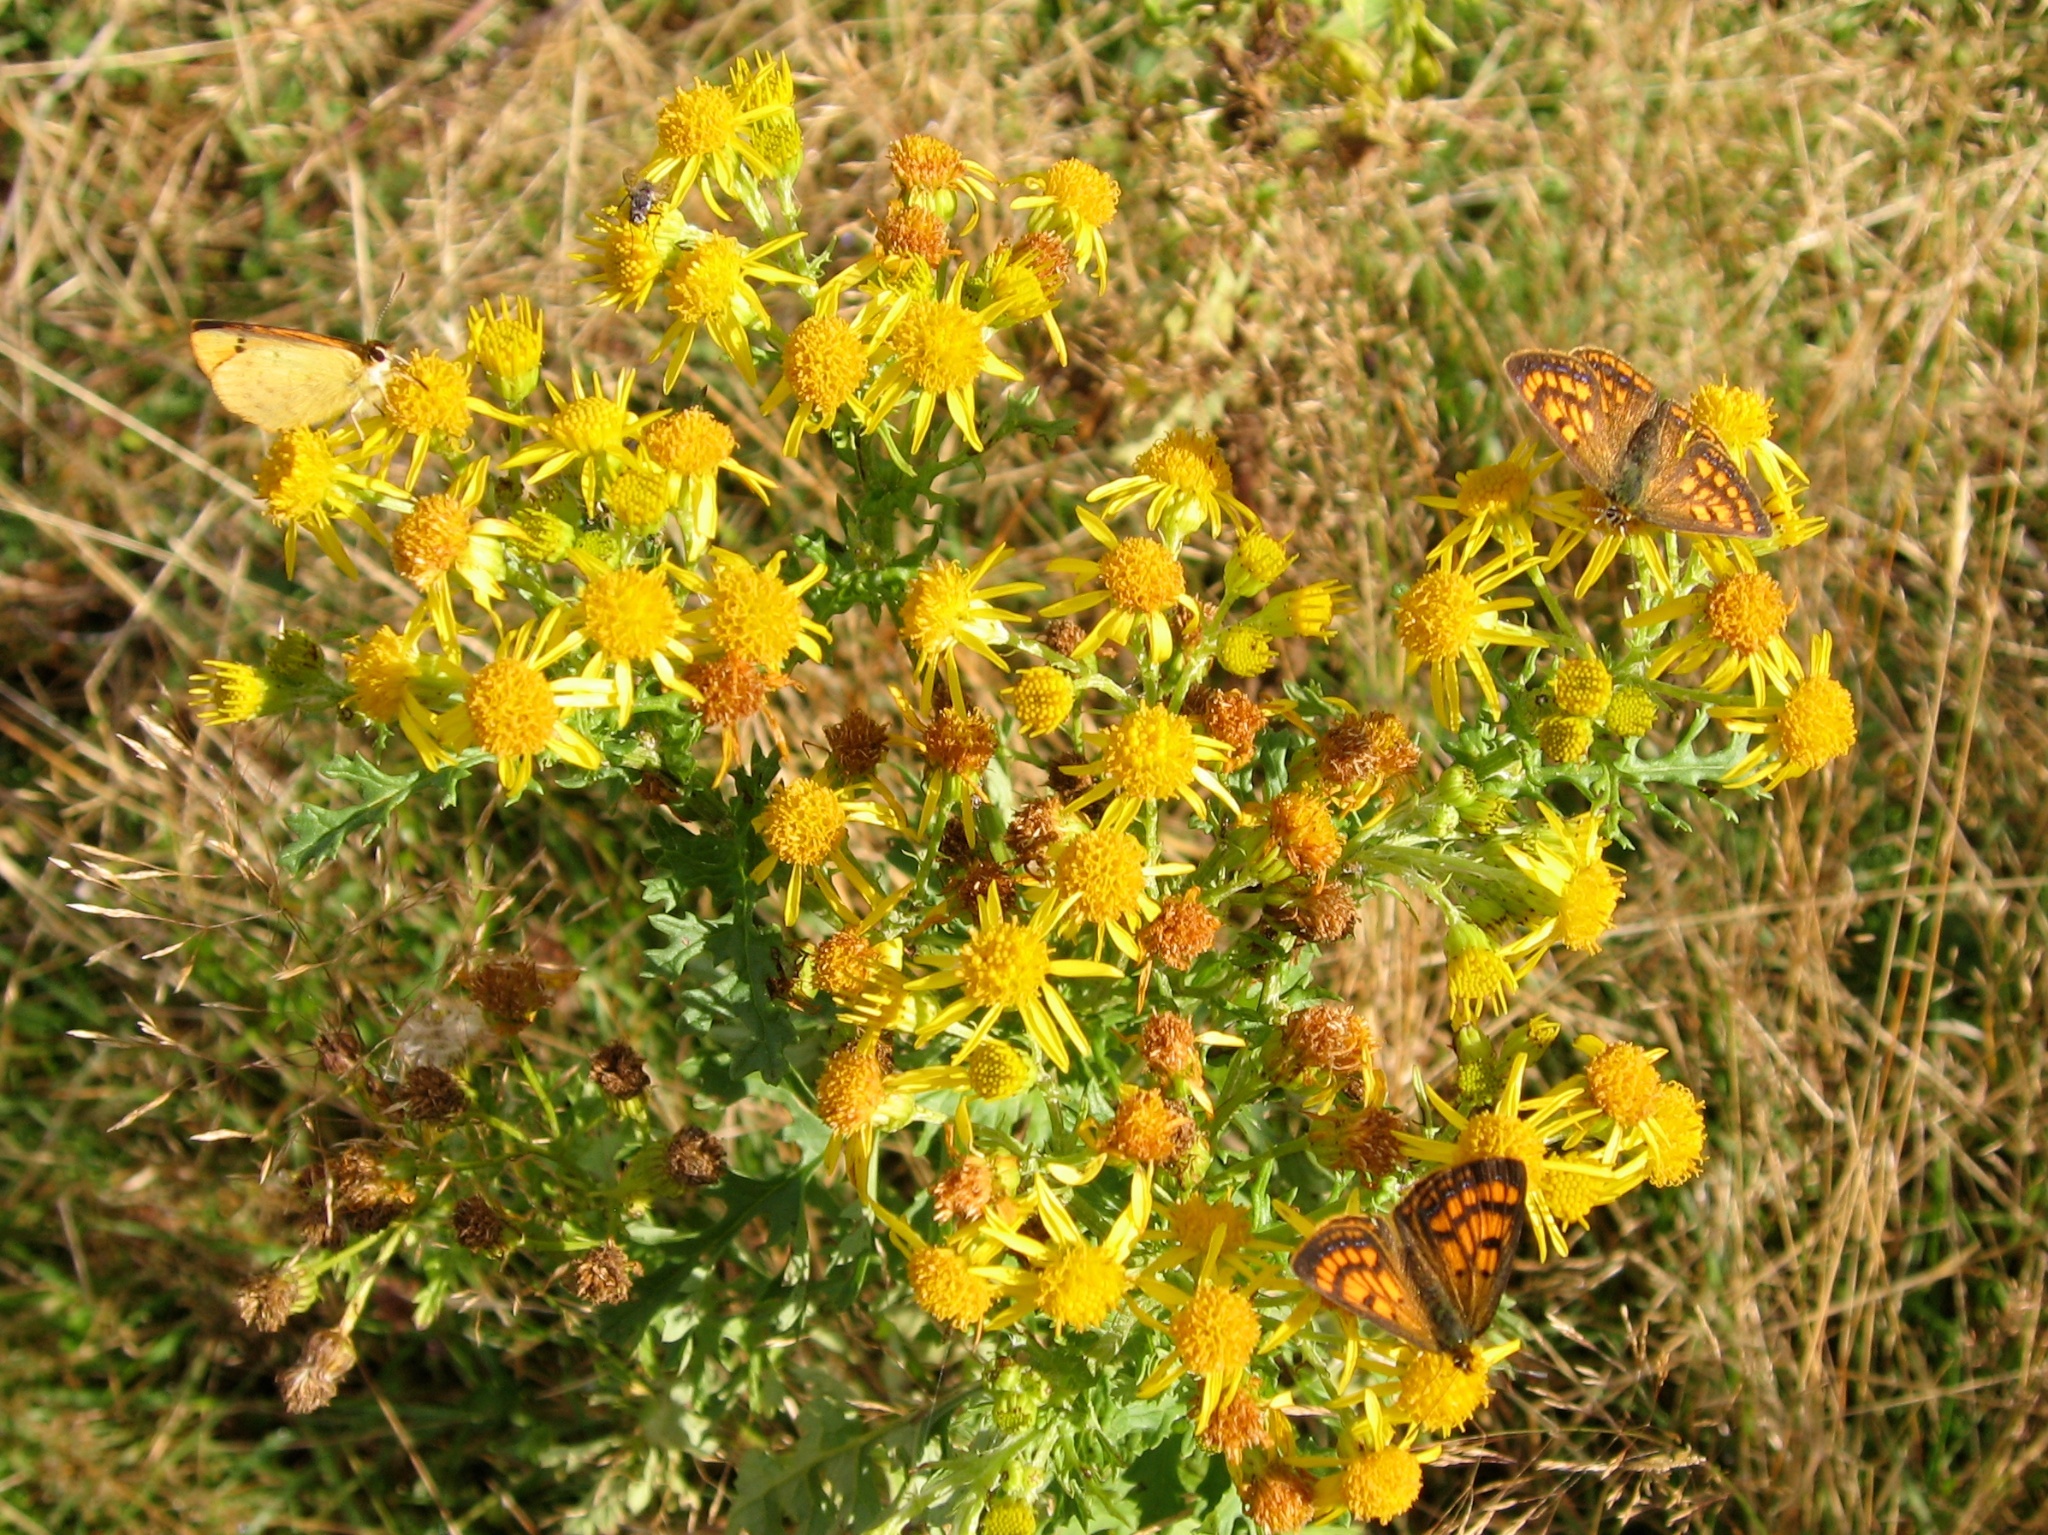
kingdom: Animalia
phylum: Arthropoda
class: Insecta
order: Lepidoptera
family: Lycaenidae
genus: Lycaena
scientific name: Lycaena salustius
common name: North island coastal copper
